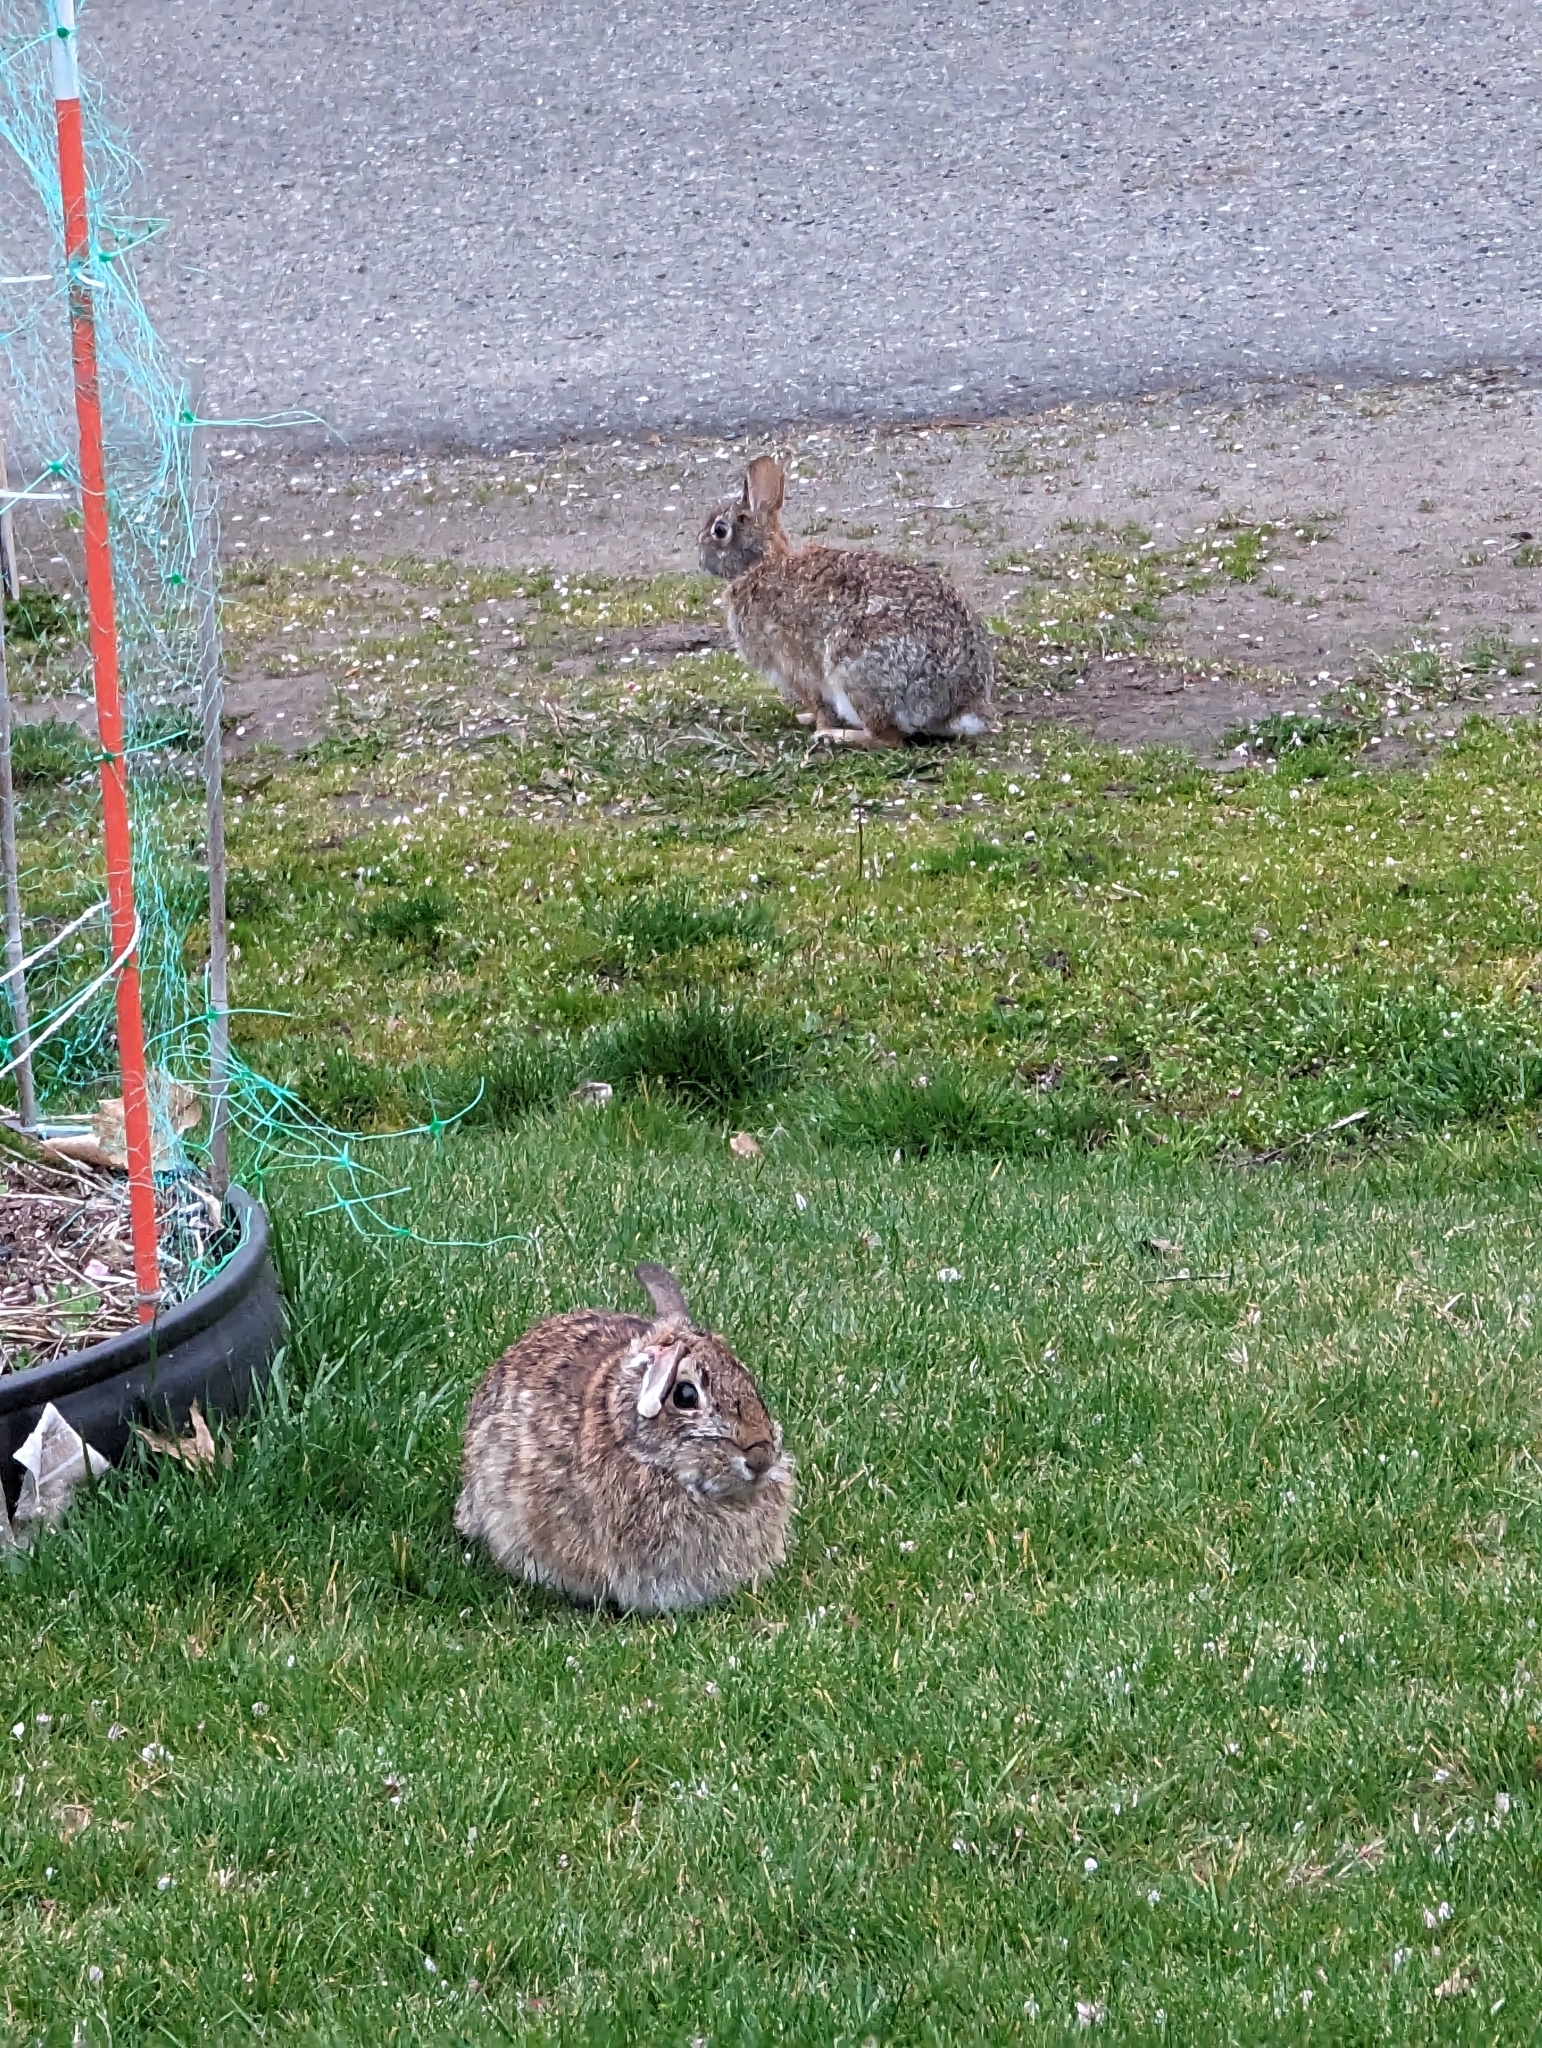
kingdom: Animalia
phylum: Chordata
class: Mammalia
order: Lagomorpha
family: Leporidae
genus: Sylvilagus
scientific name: Sylvilagus floridanus
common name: Eastern cottontail
